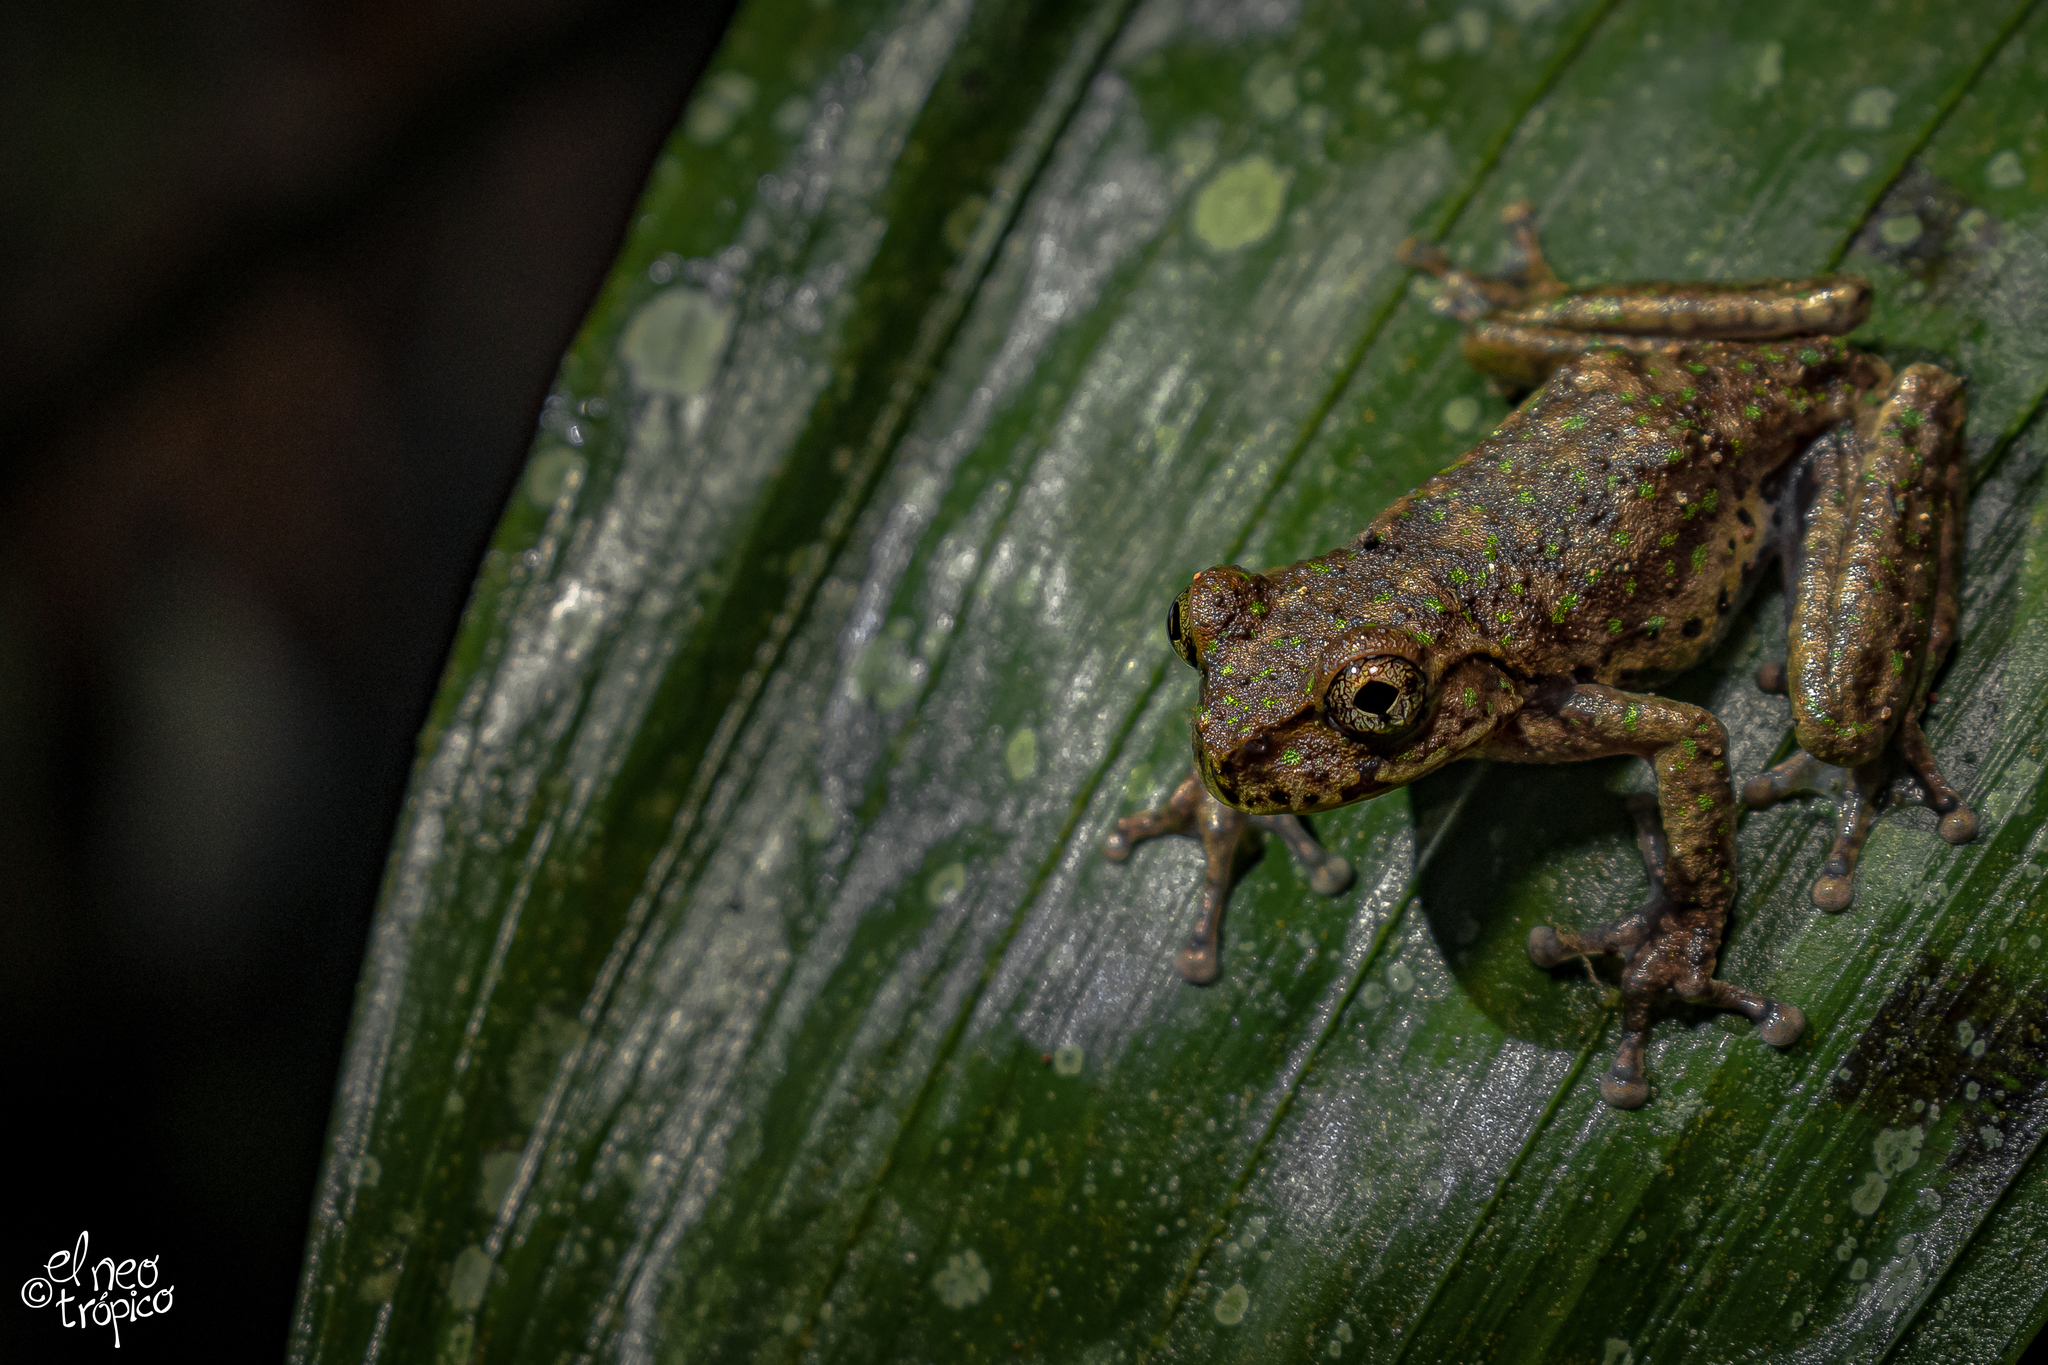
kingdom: Animalia
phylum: Chordata
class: Amphibia
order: Anura
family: Hylidae
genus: Plectrohyla
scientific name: Plectrohyla matudai
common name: Matuda's spikethumb frog
